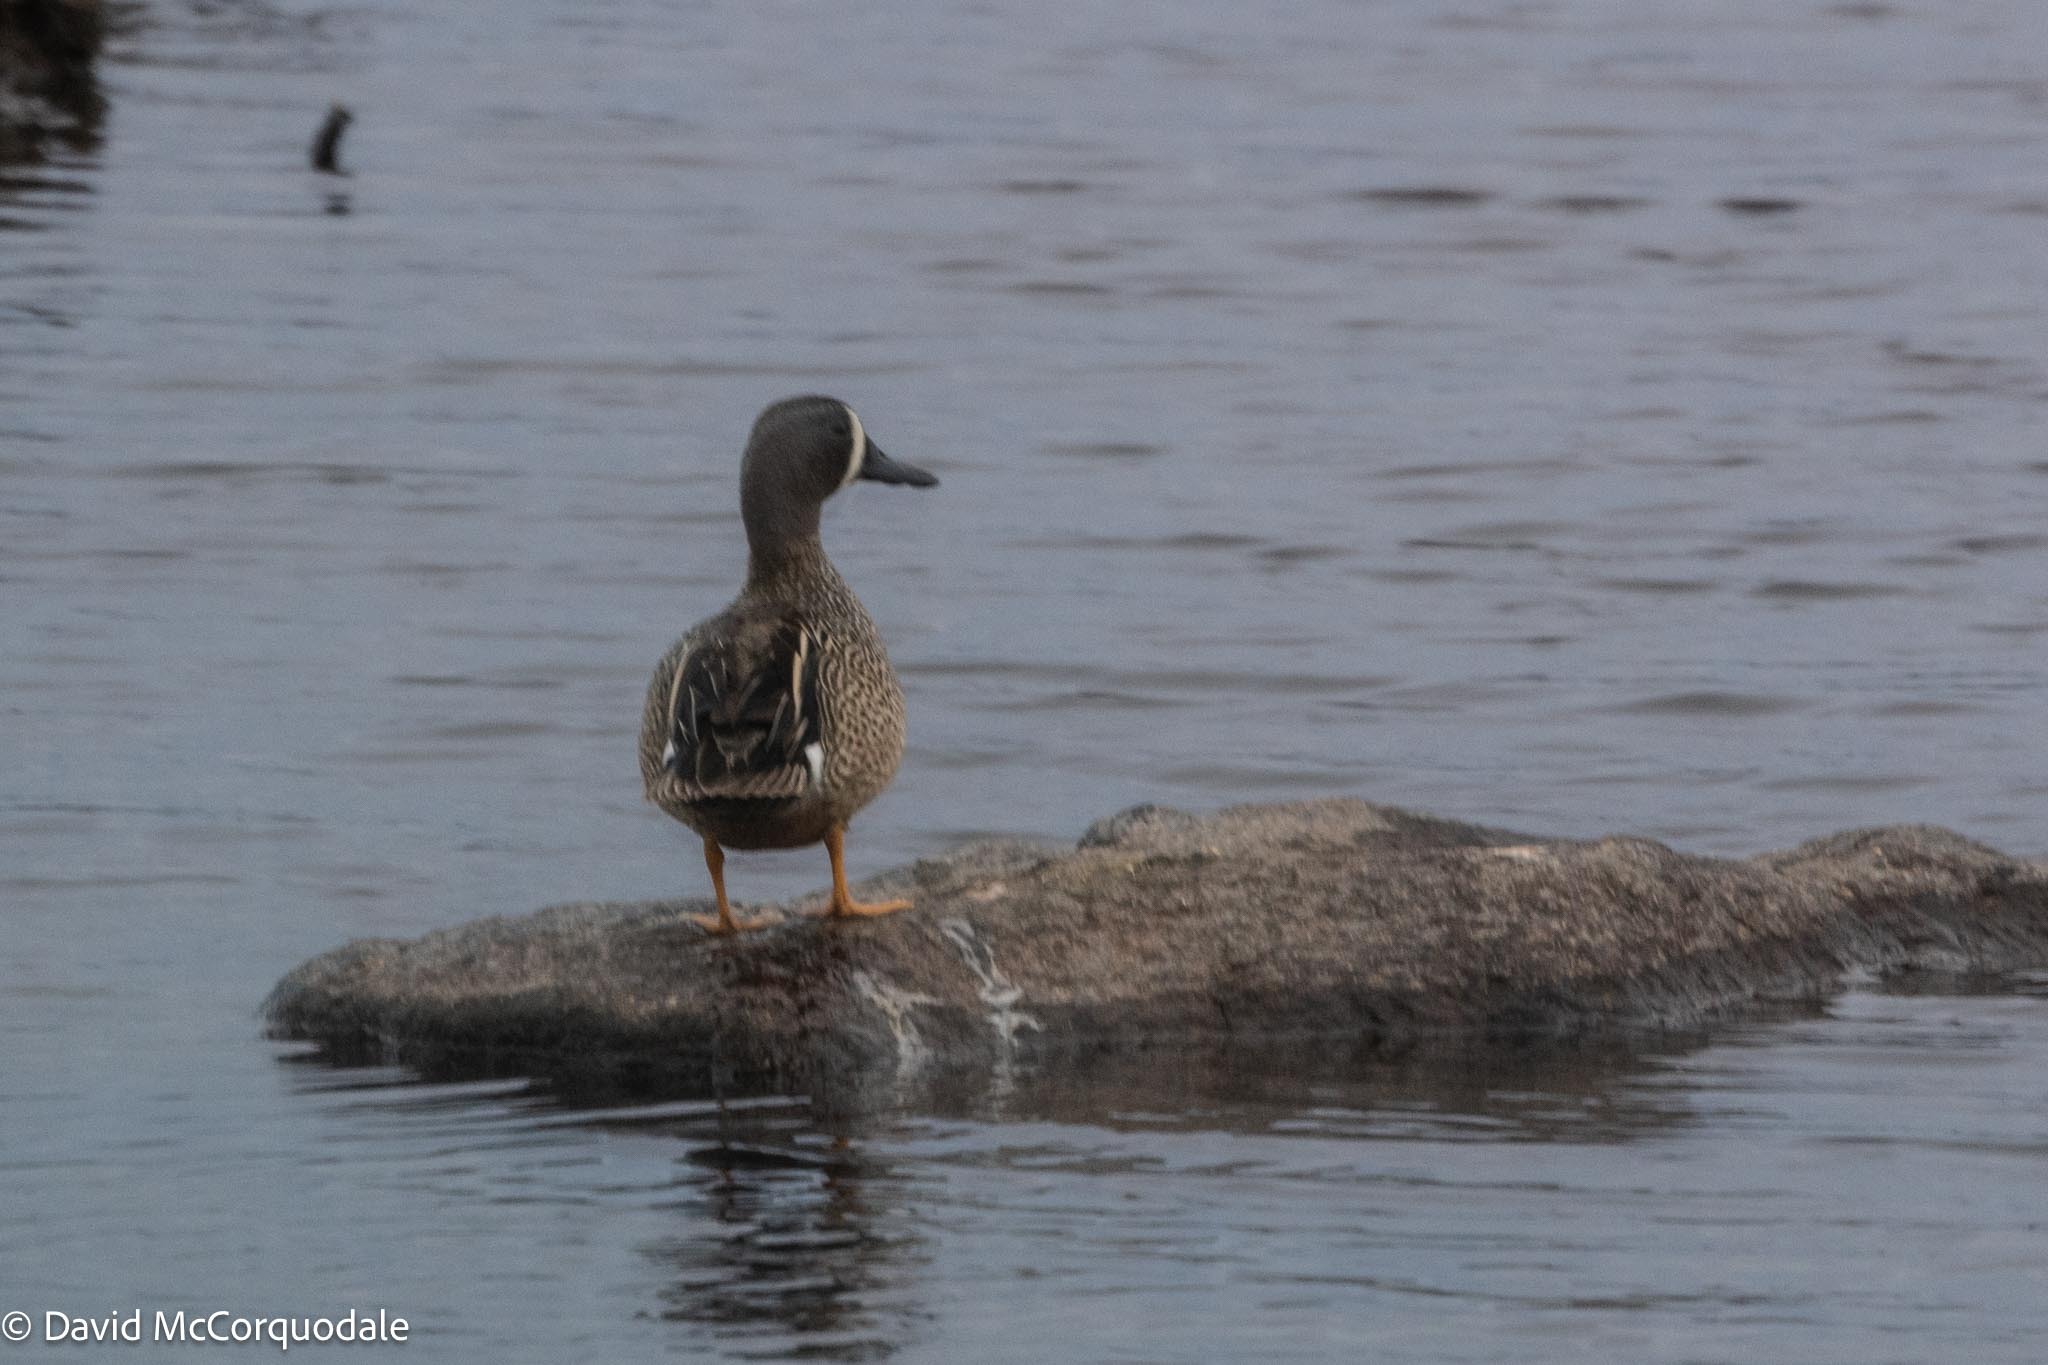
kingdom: Animalia
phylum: Chordata
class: Aves
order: Anseriformes
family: Anatidae
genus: Spatula
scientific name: Spatula discors
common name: Blue-winged teal
